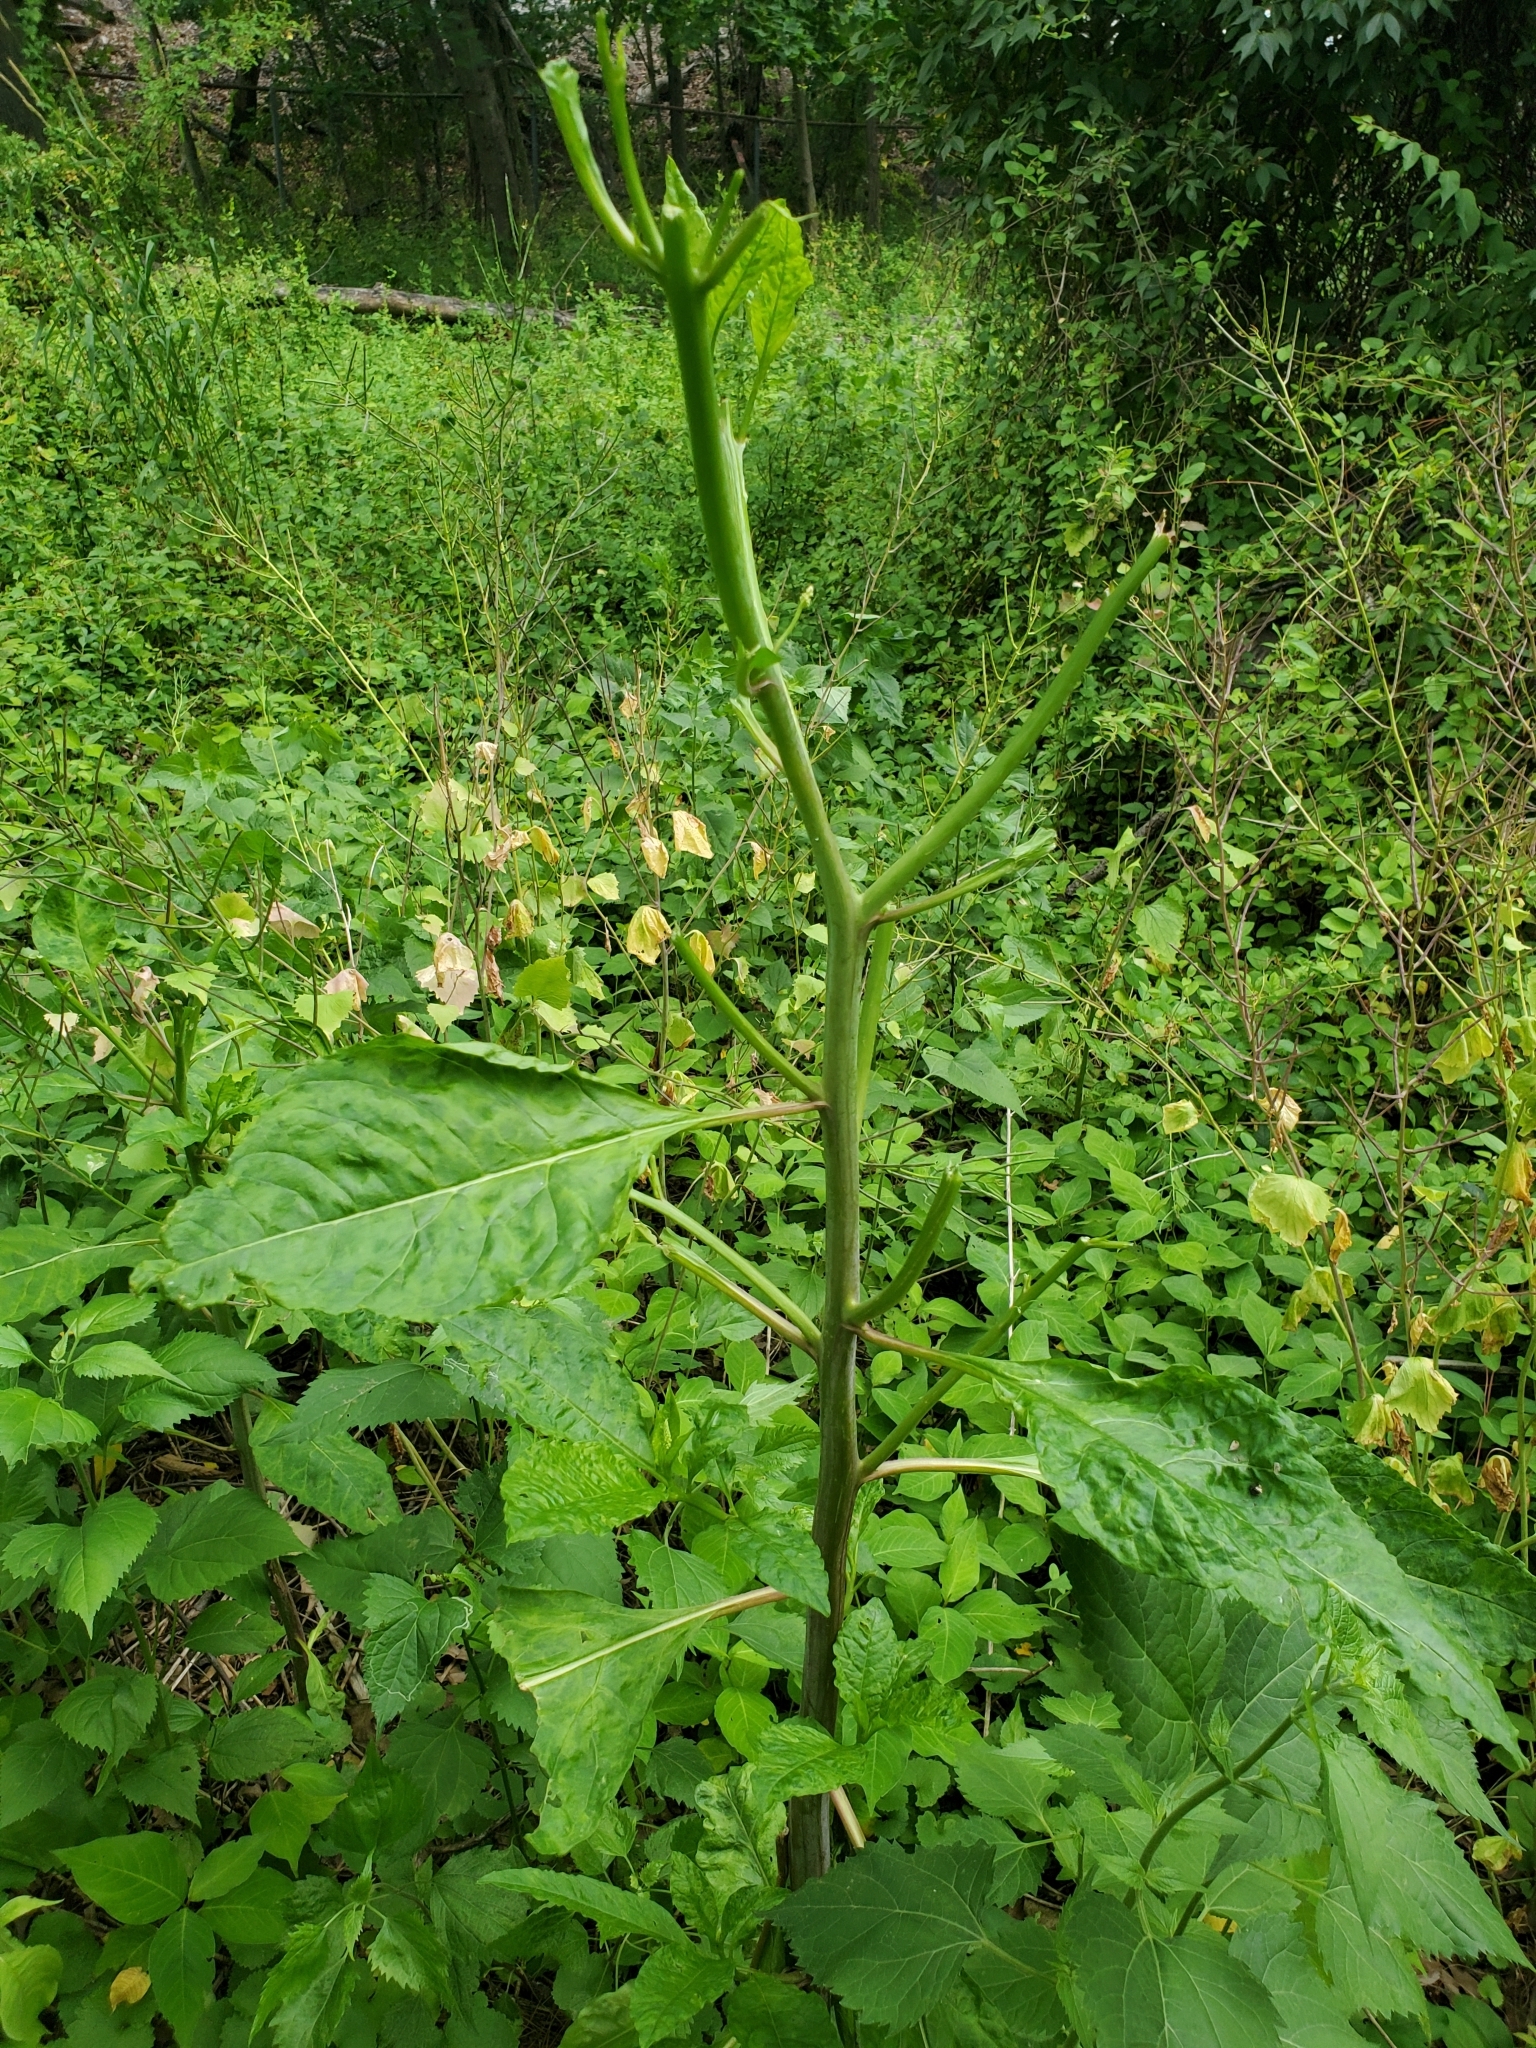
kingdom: Plantae
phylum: Tracheophyta
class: Magnoliopsida
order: Caryophyllales
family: Phytolaccaceae
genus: Phytolacca
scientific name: Phytolacca americana
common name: American pokeweed
